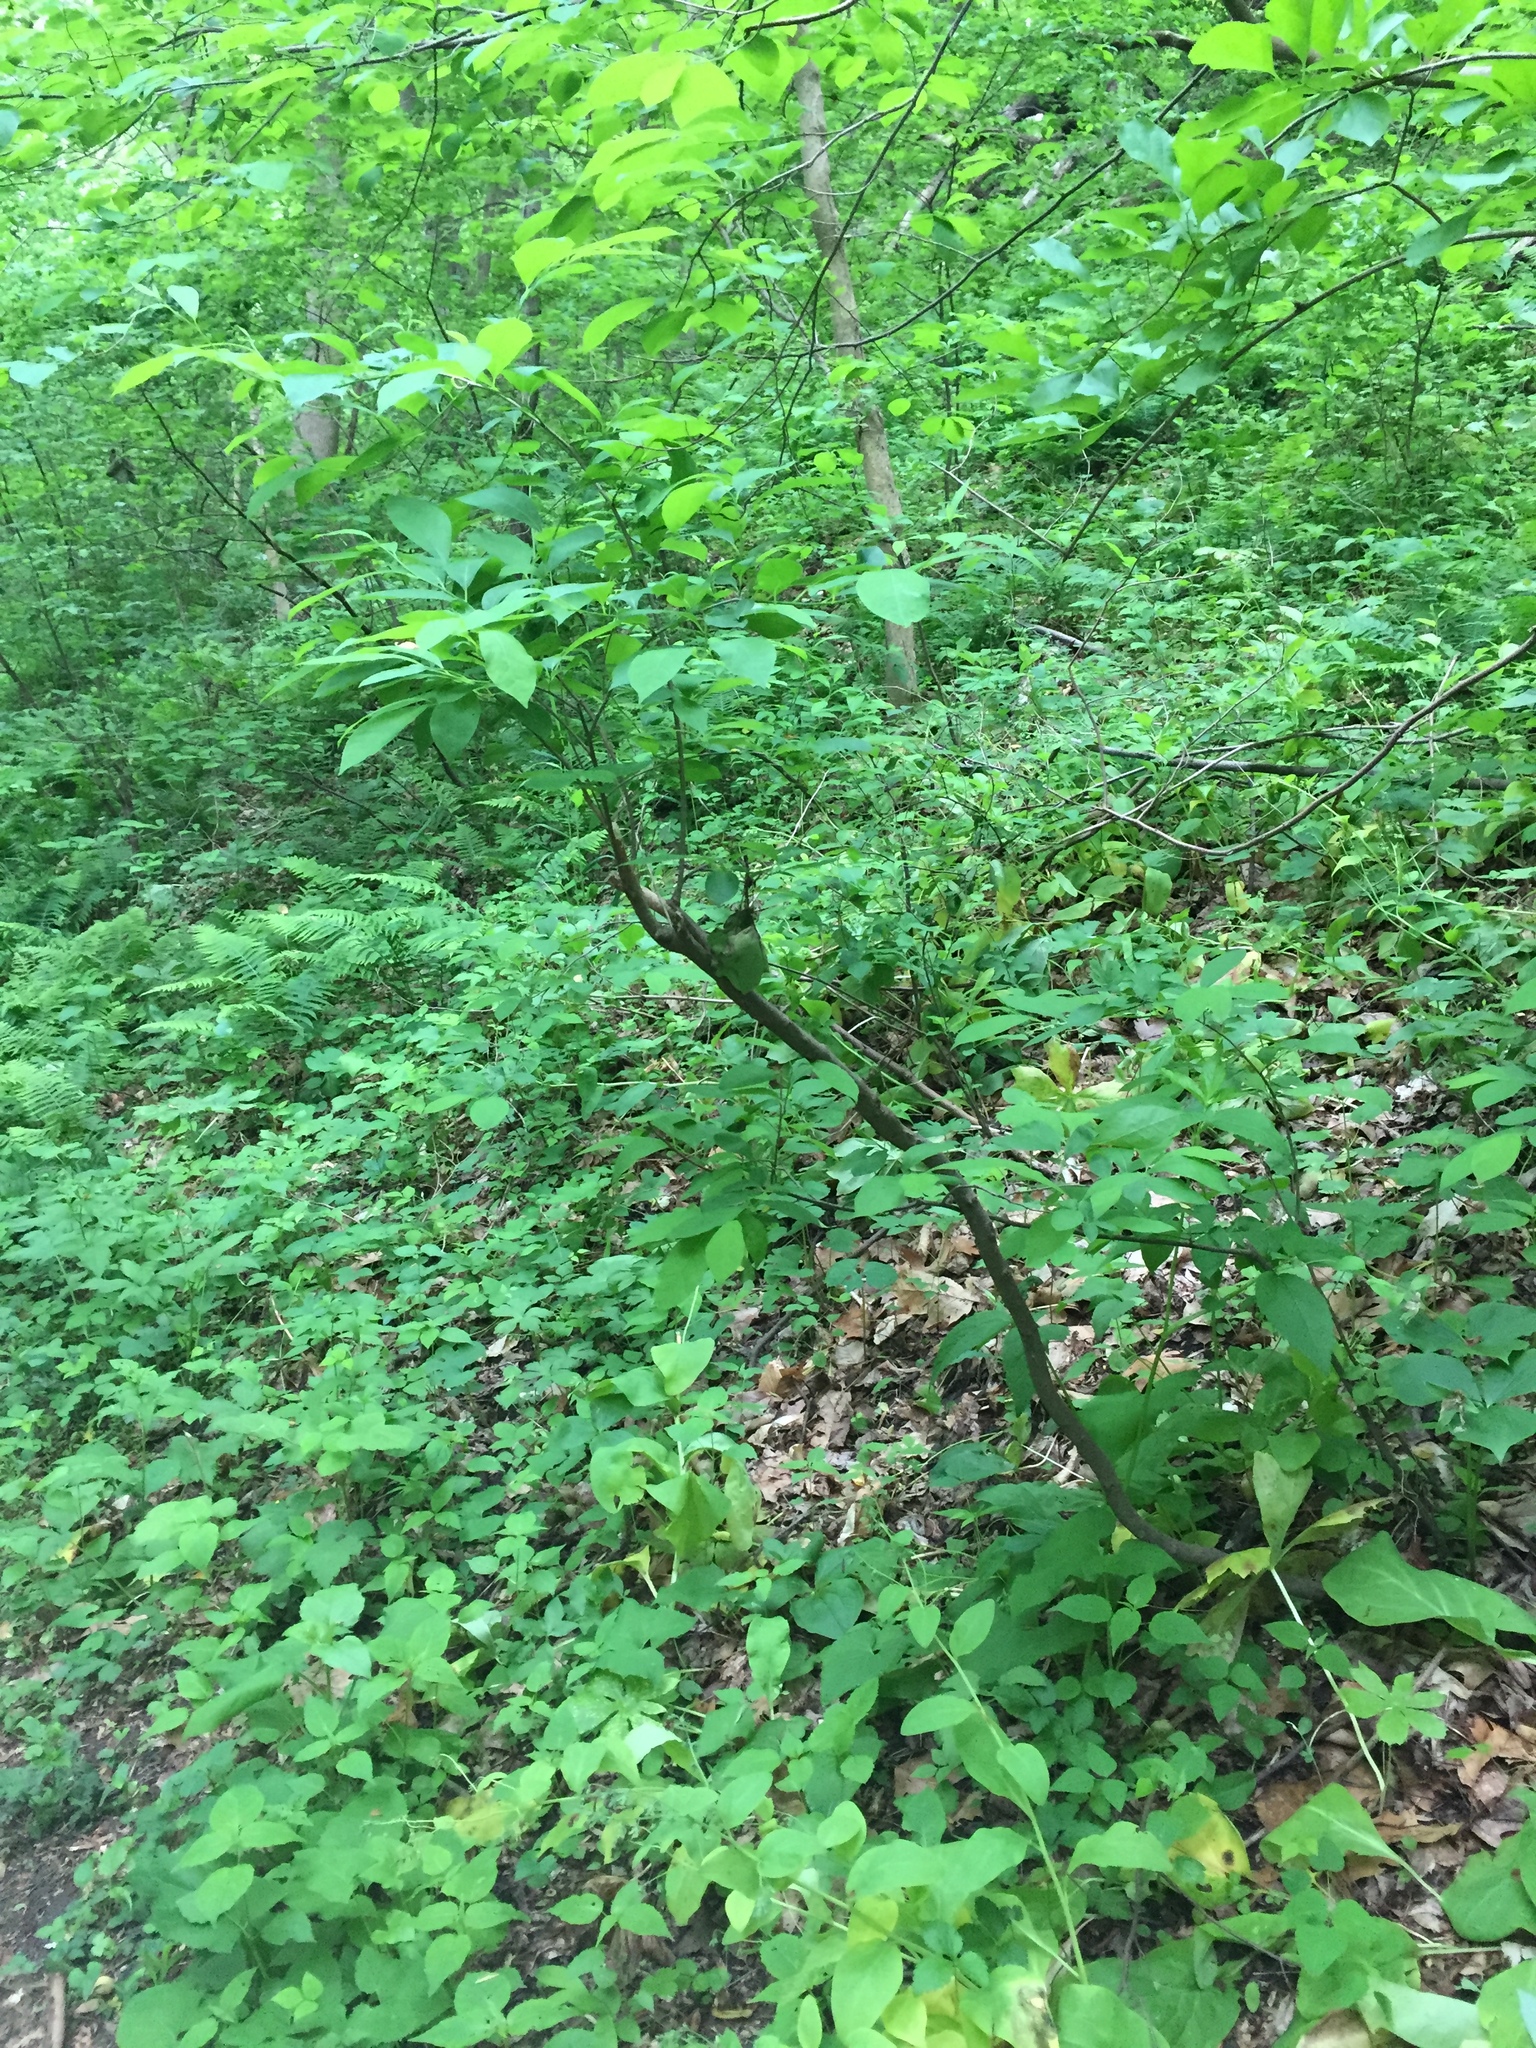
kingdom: Plantae
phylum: Tracheophyta
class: Magnoliopsida
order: Laurales
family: Lauraceae
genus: Lindera
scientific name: Lindera benzoin
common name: Spicebush
